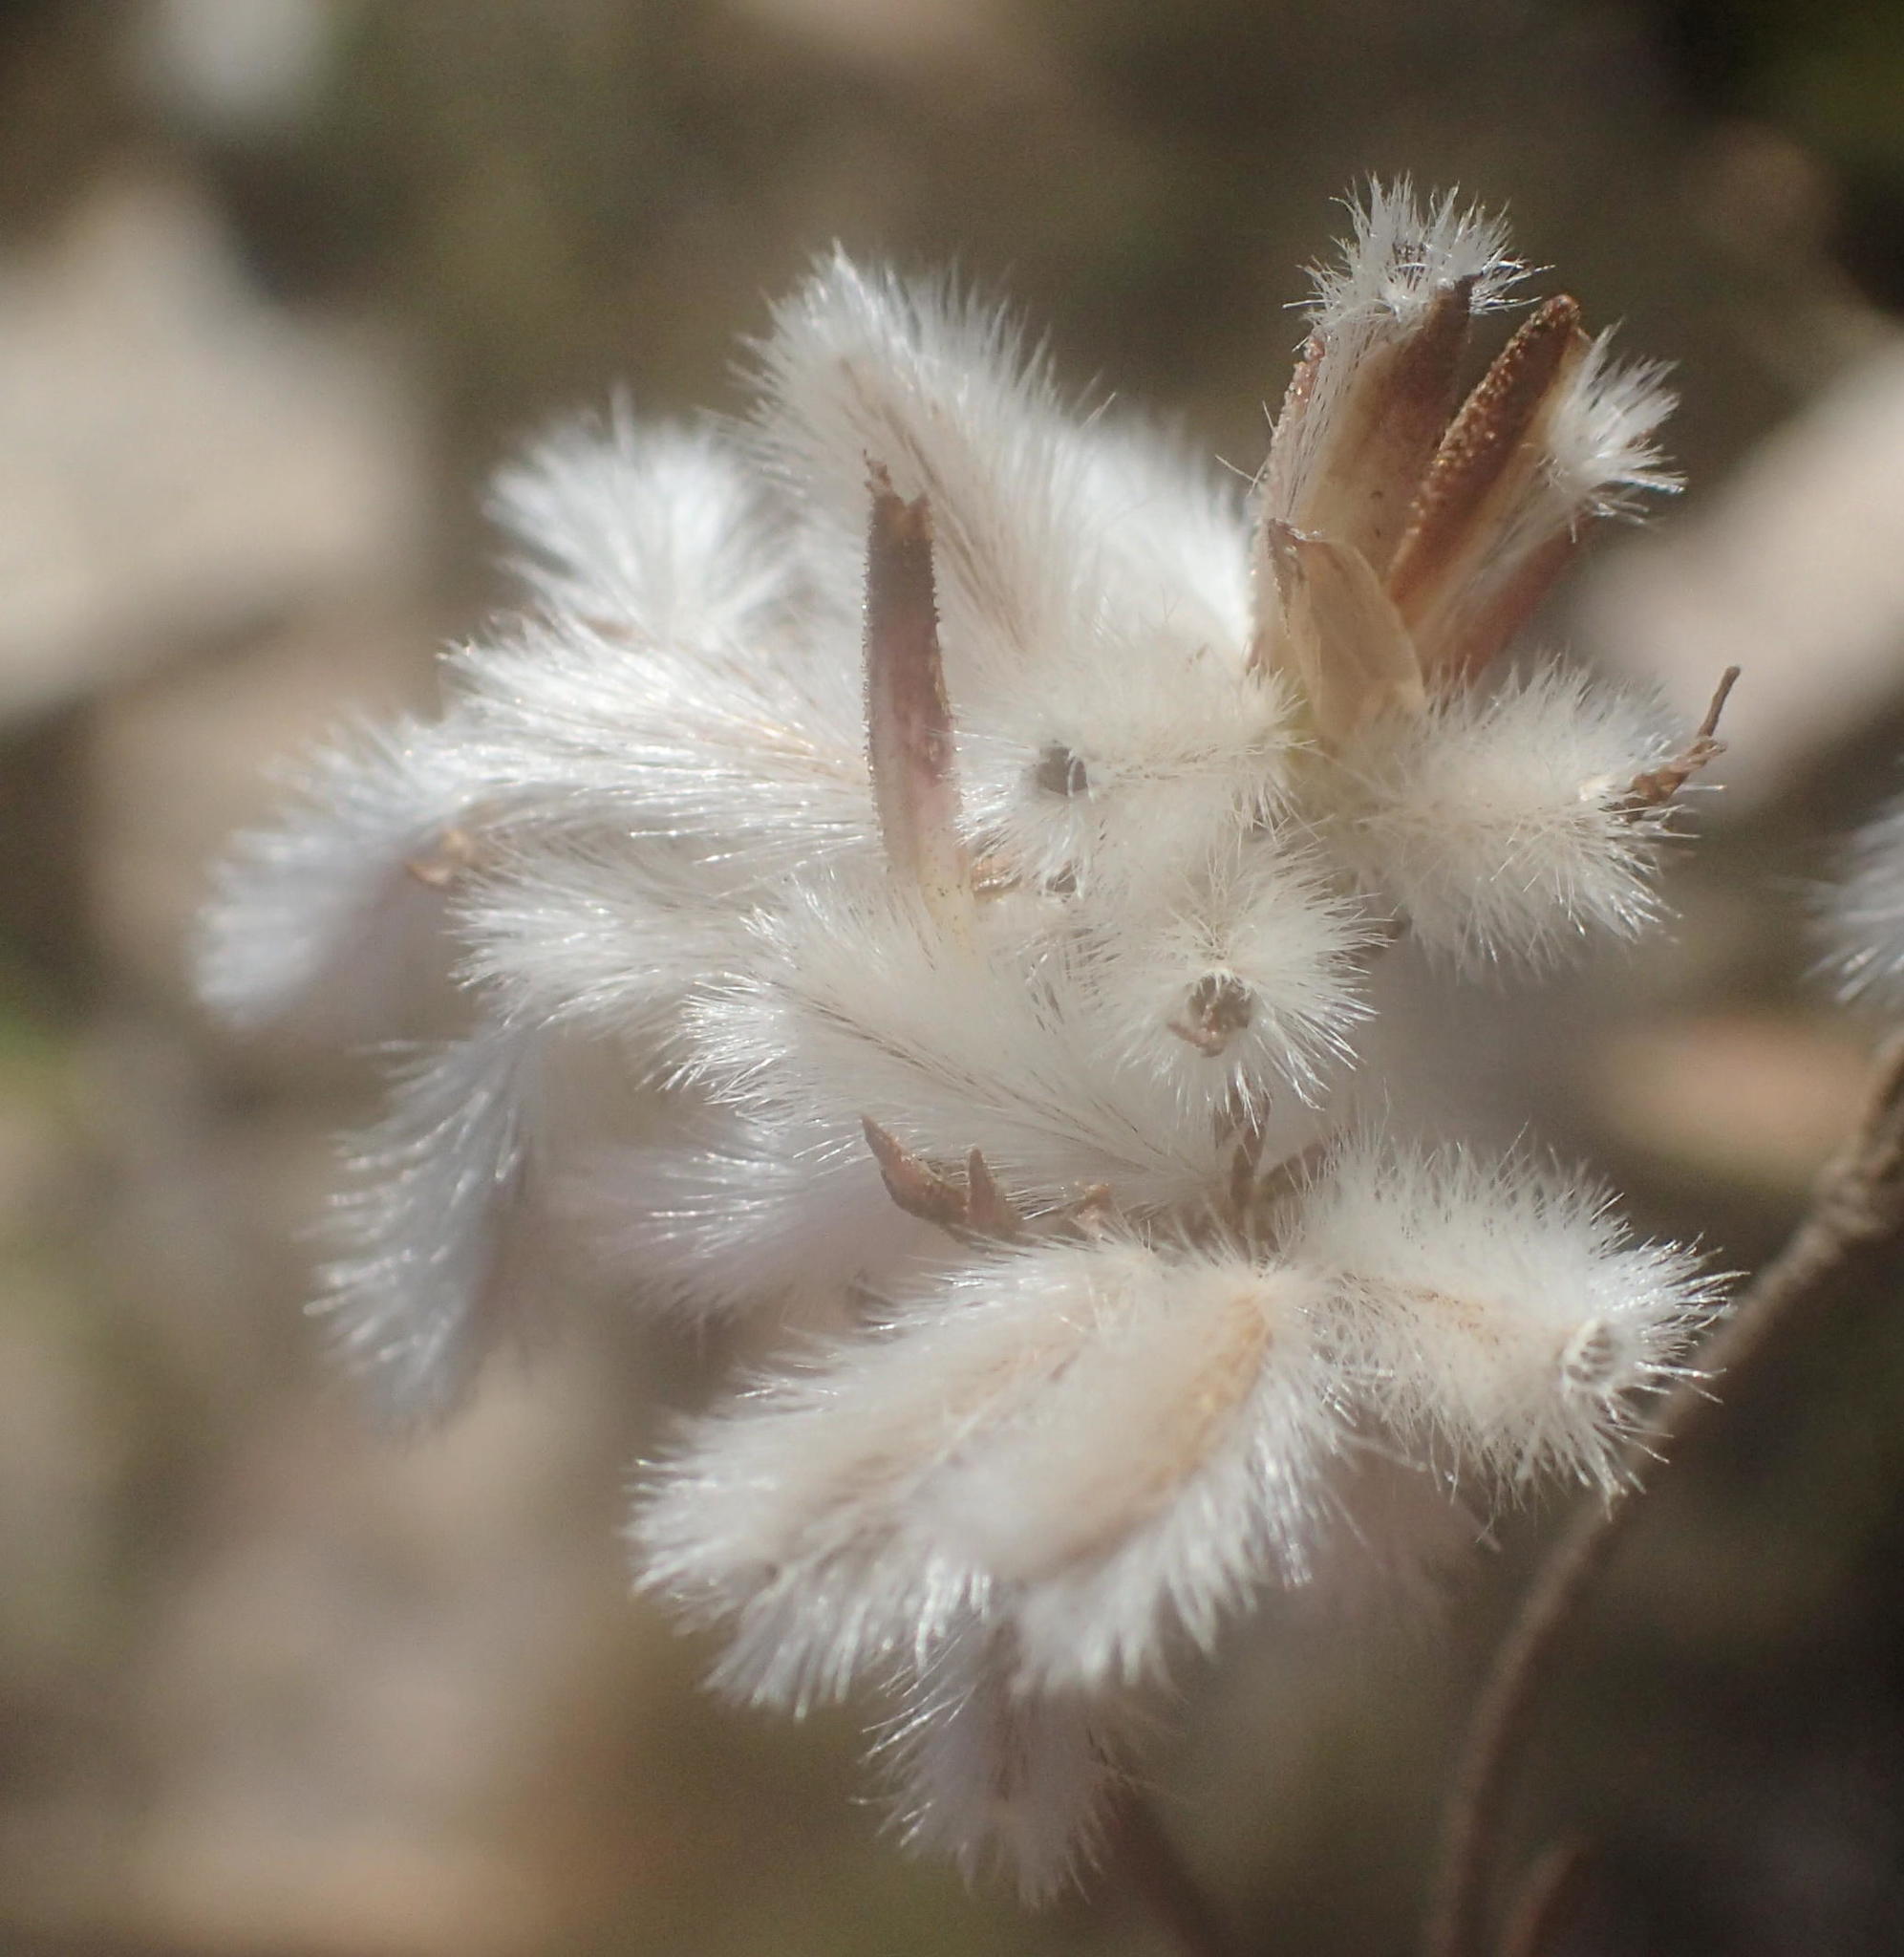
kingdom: Plantae
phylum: Tracheophyta
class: Magnoliopsida
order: Asterales
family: Asteraceae
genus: Corymbium
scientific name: Corymbium glabrum
